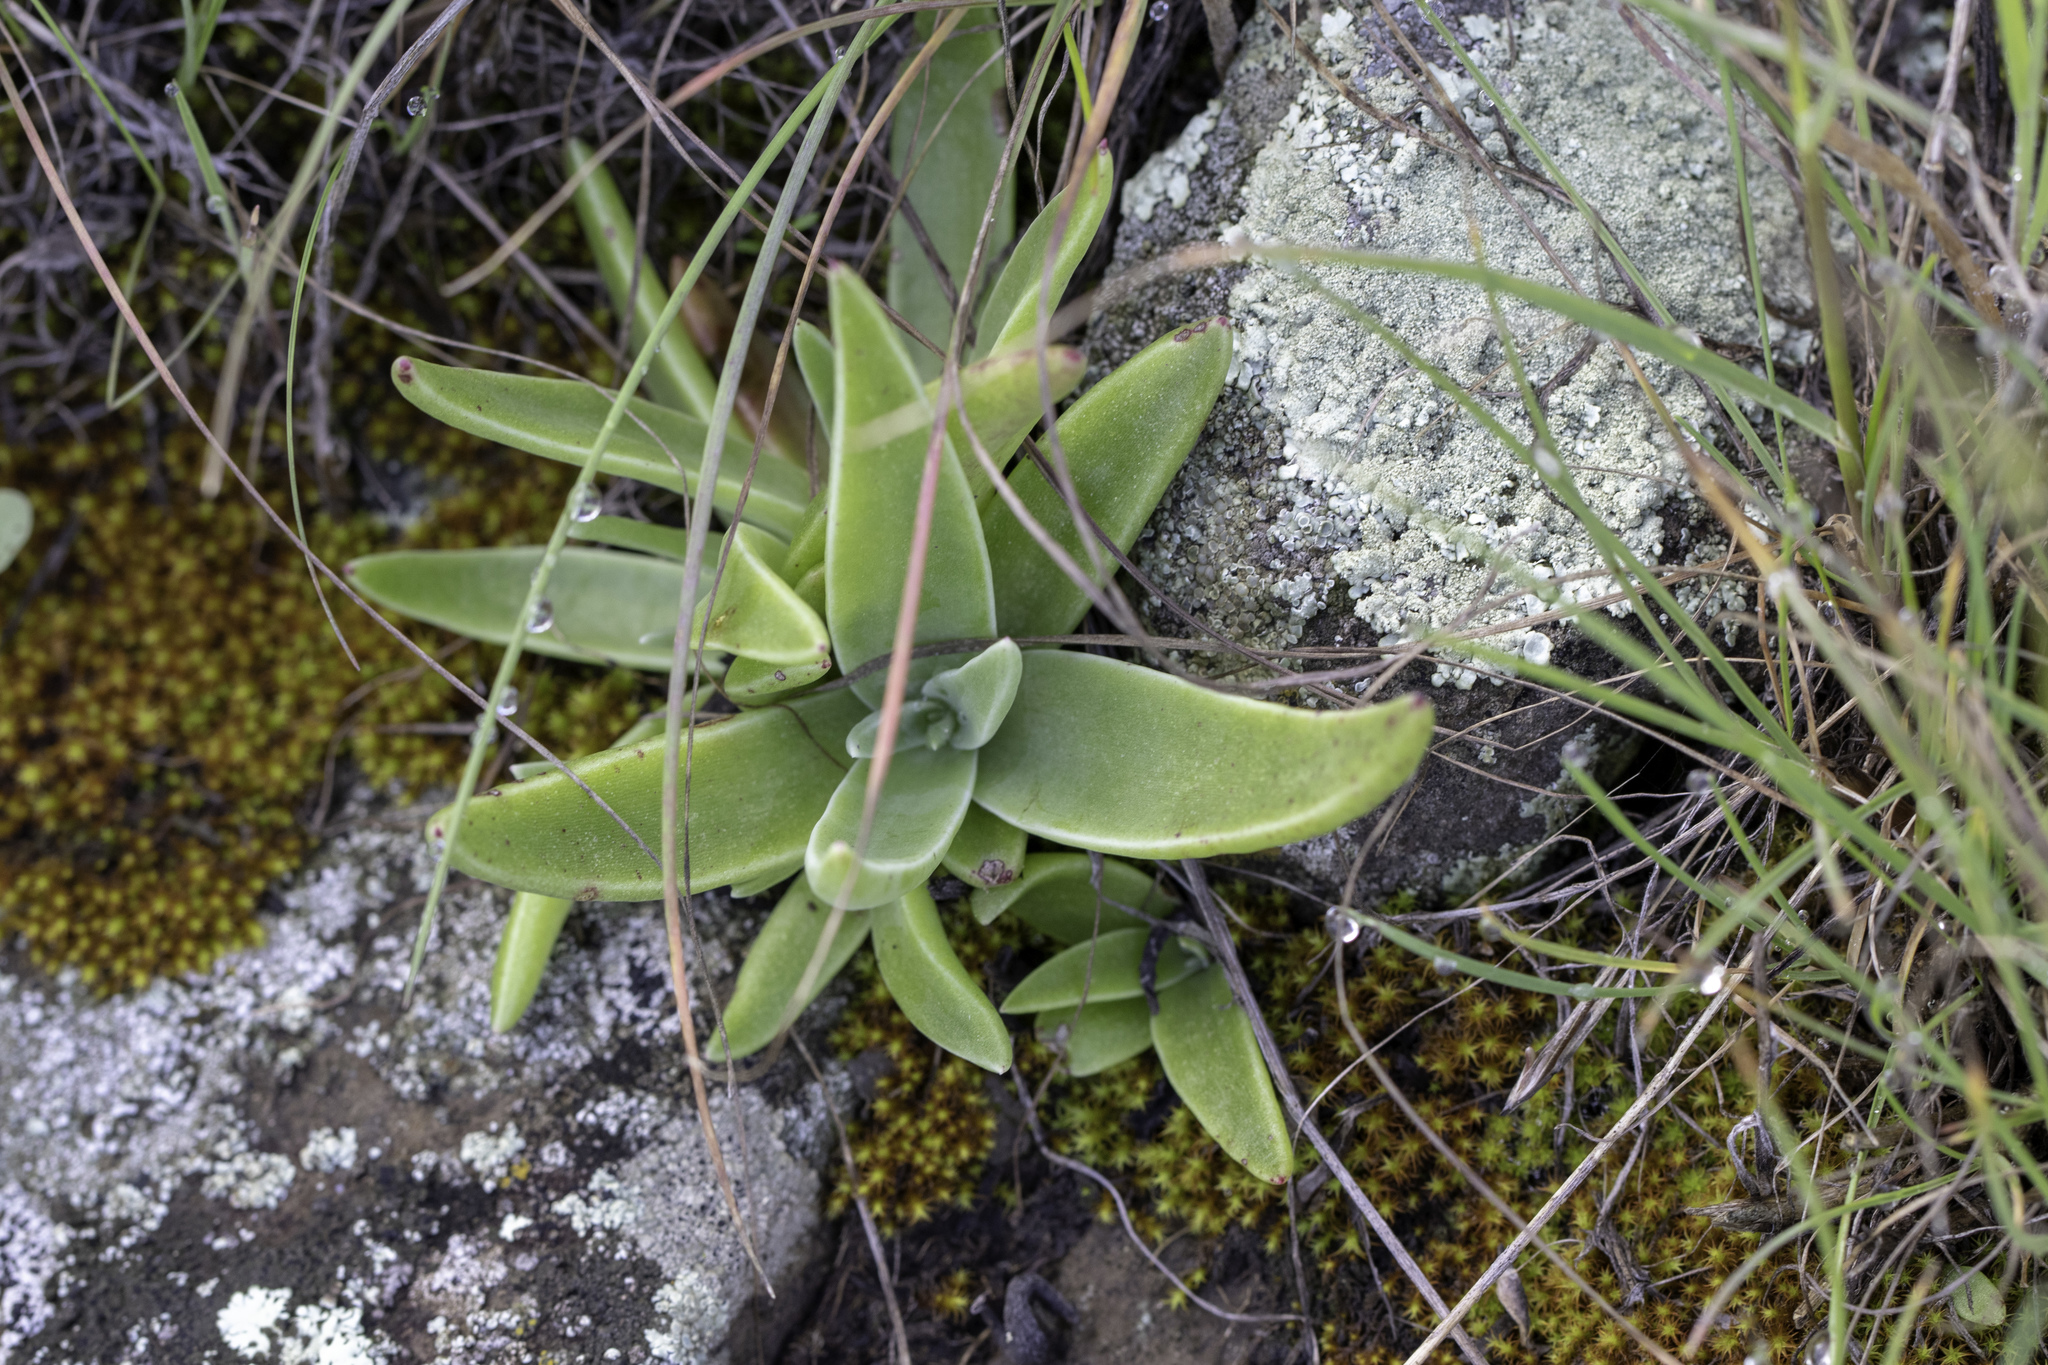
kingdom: Plantae
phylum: Tracheophyta
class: Magnoliopsida
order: Saxifragales
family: Crassulaceae
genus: Dudleya
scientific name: Dudleya lanceolata
